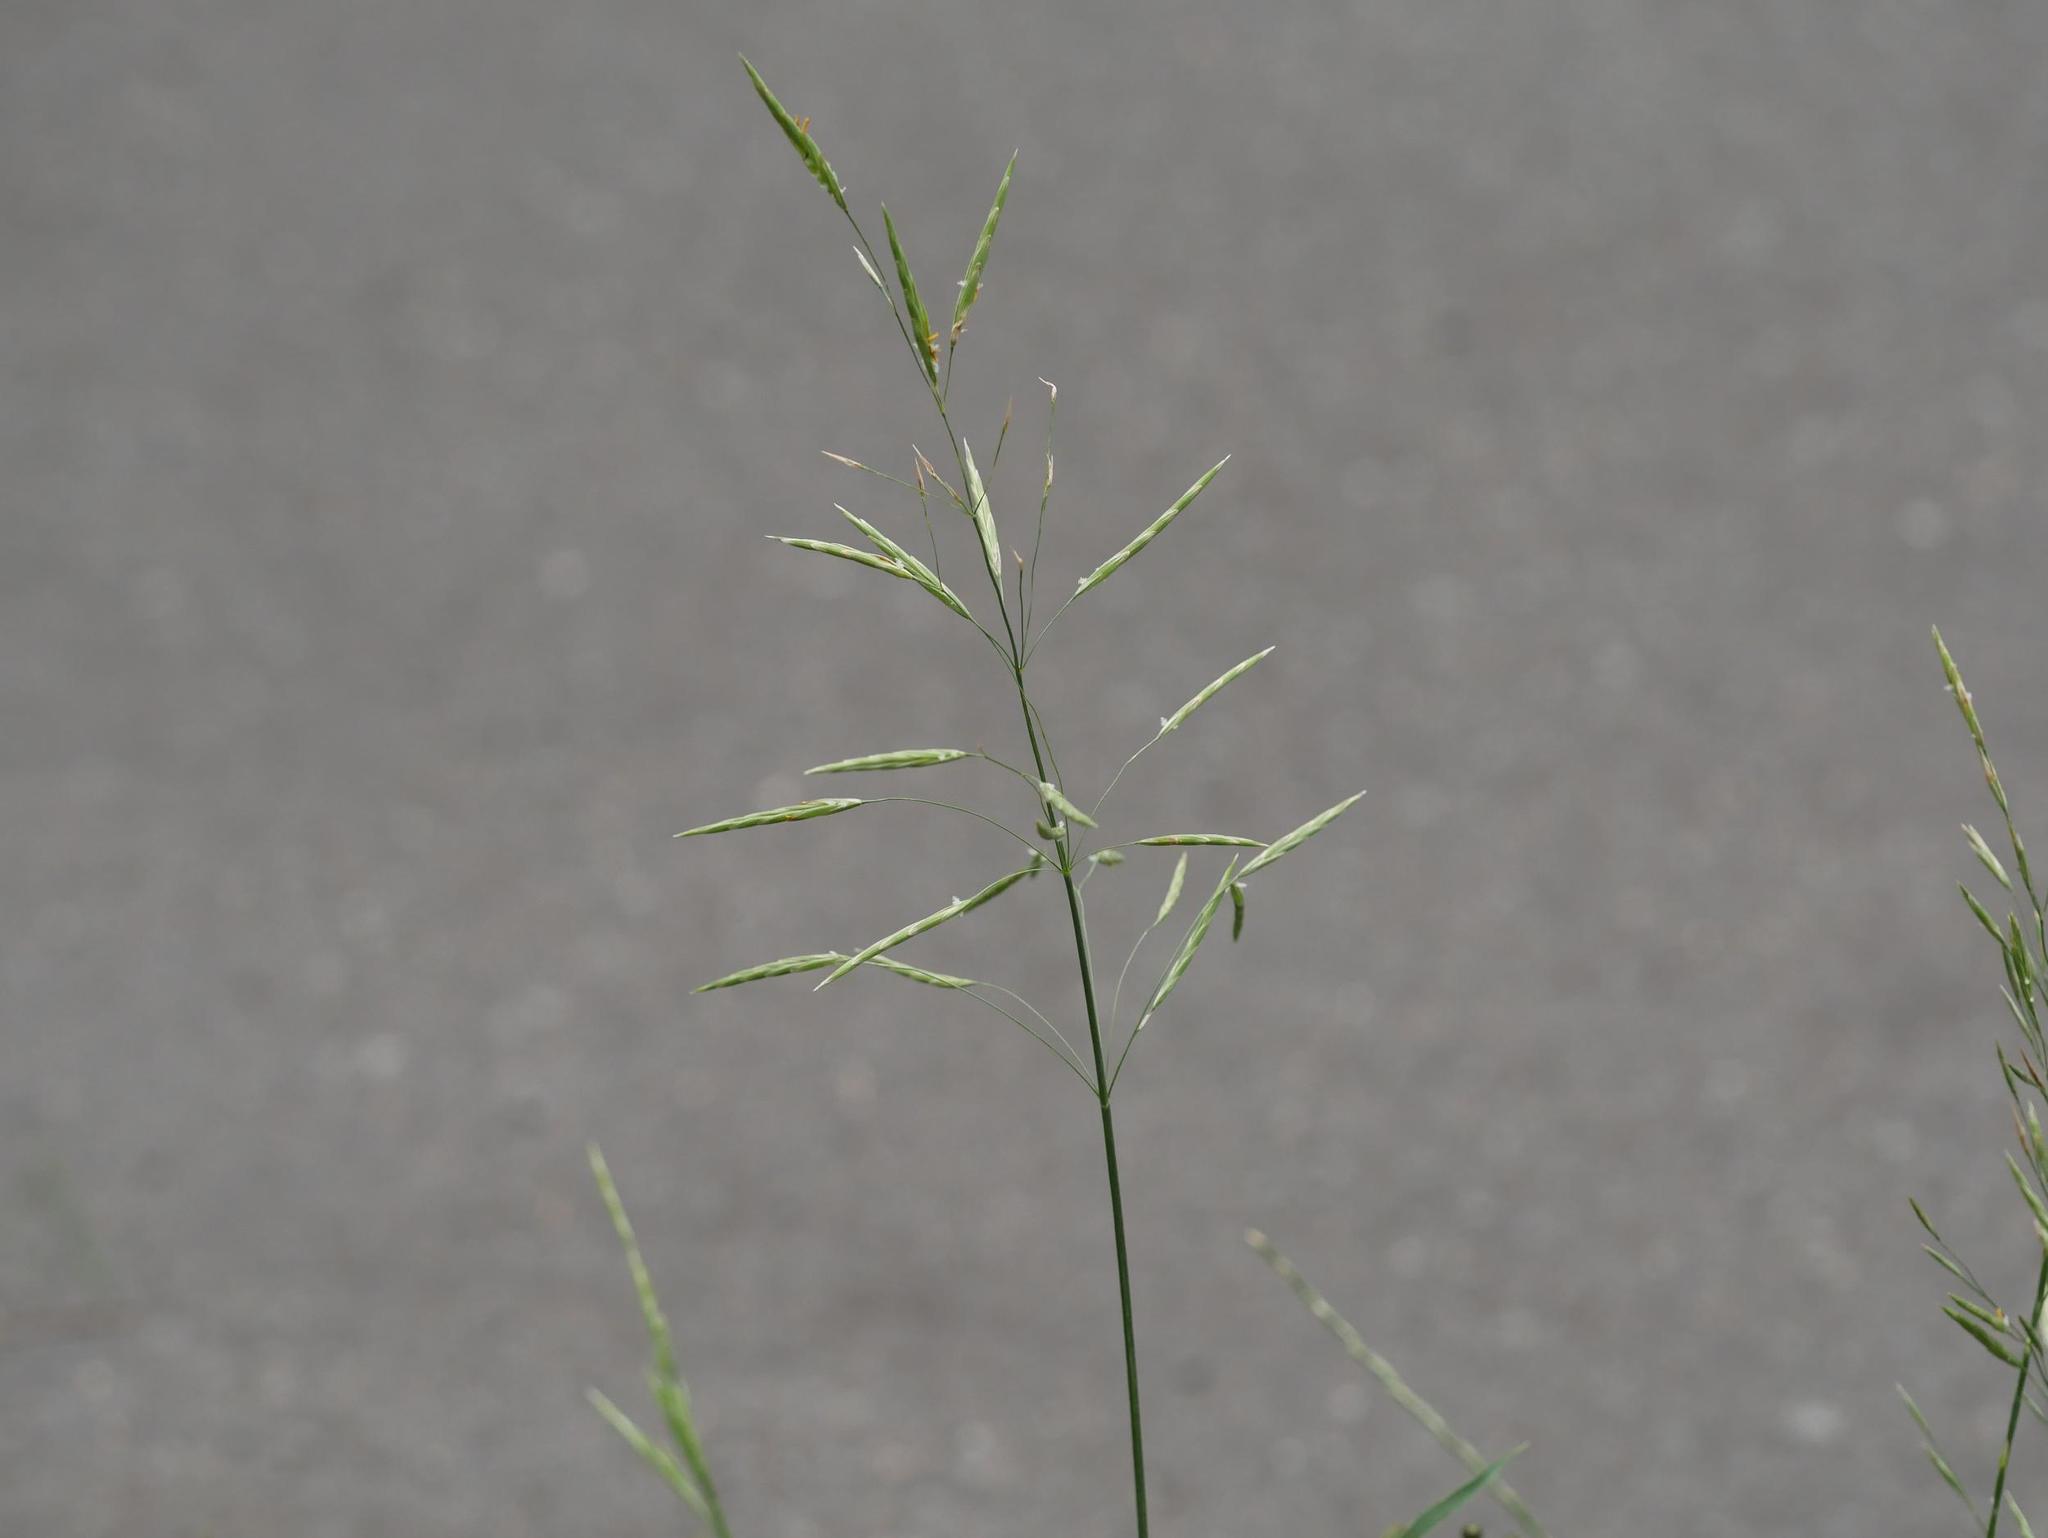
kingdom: Plantae
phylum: Tracheophyta
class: Liliopsida
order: Poales
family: Poaceae
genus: Bromus
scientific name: Bromus inermis
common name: Smooth brome
